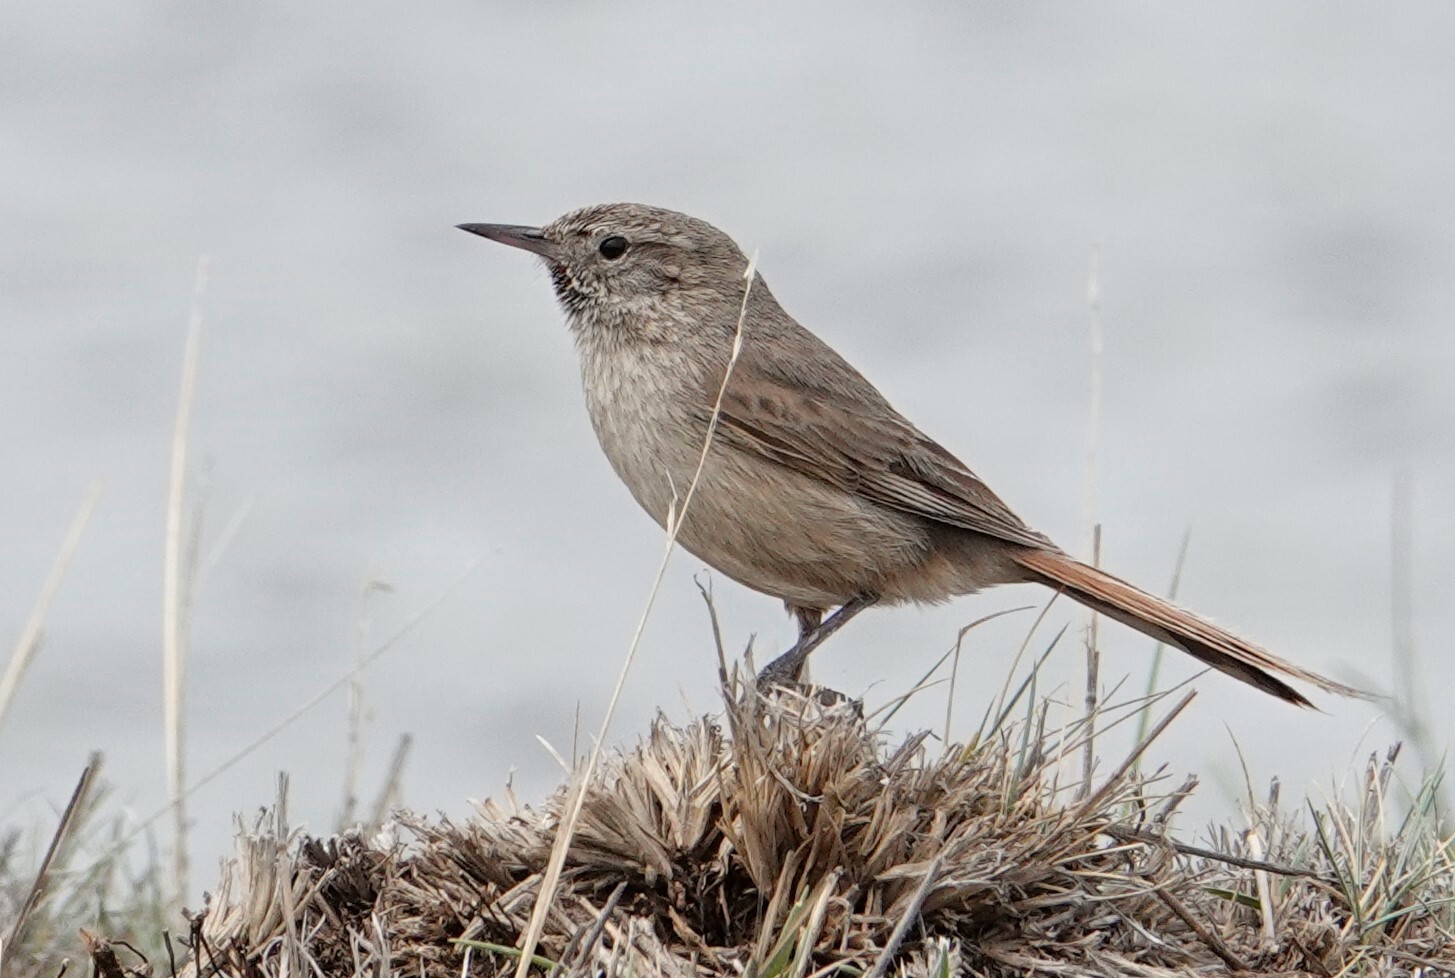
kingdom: Animalia
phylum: Chordata
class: Aves
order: Passeriformes
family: Furnariidae
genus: Asthenes
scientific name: Asthenes modesta
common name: Cordilleran canastero
